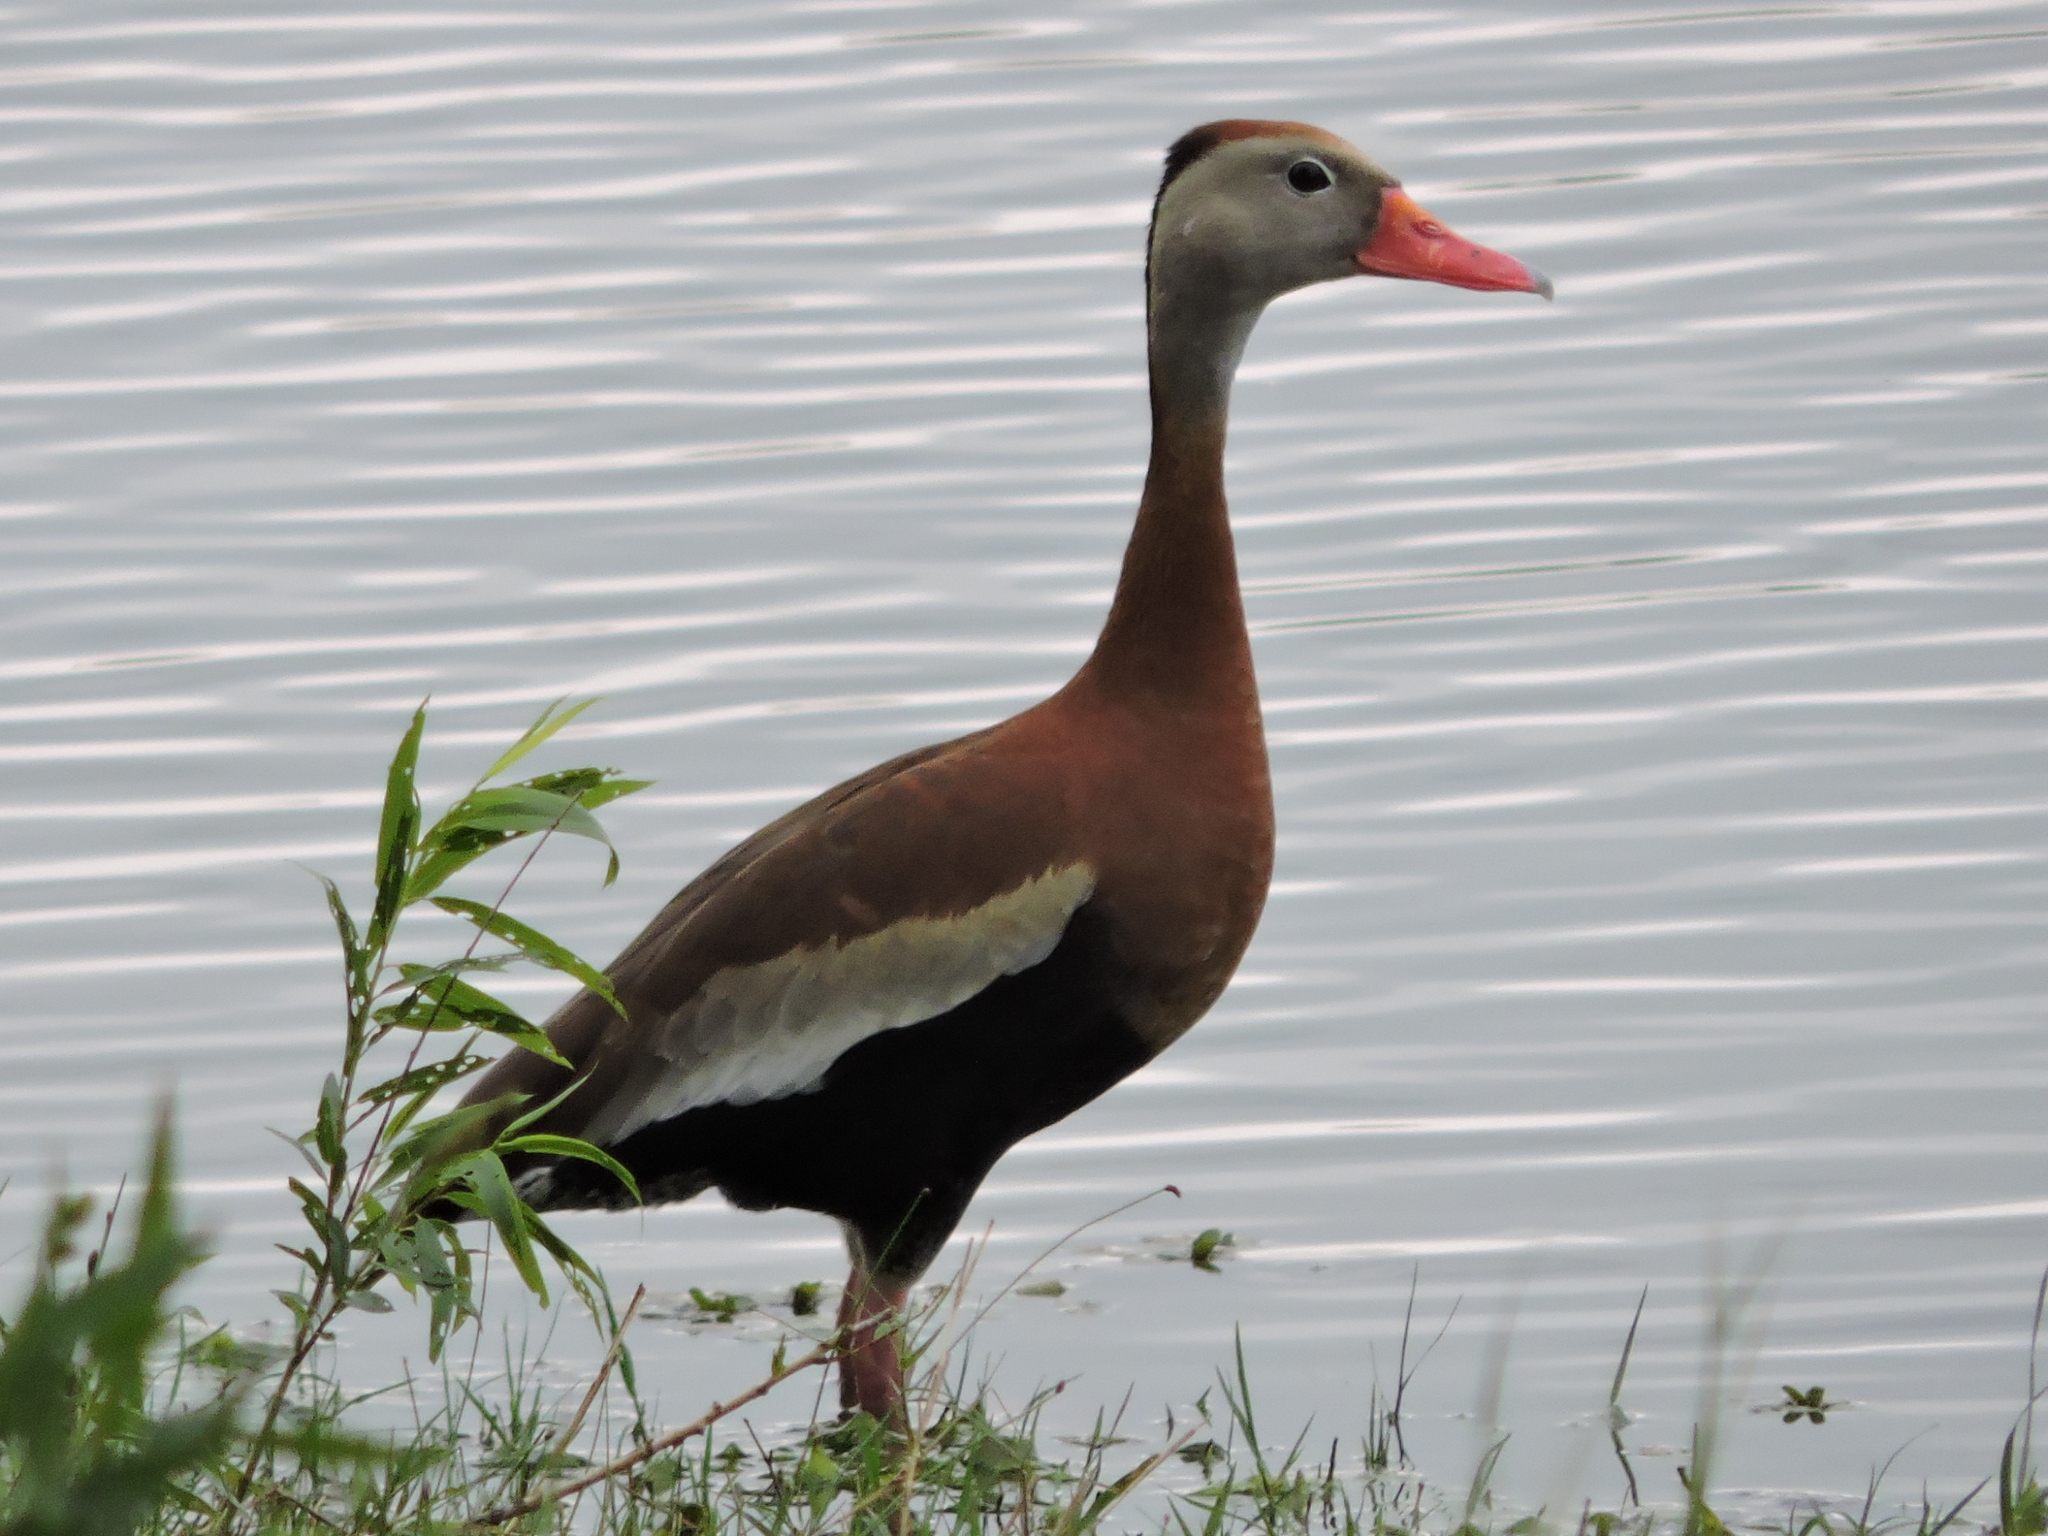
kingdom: Animalia
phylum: Chordata
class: Aves
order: Anseriformes
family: Anatidae
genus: Dendrocygna
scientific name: Dendrocygna autumnalis
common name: Black-bellied whistling duck
